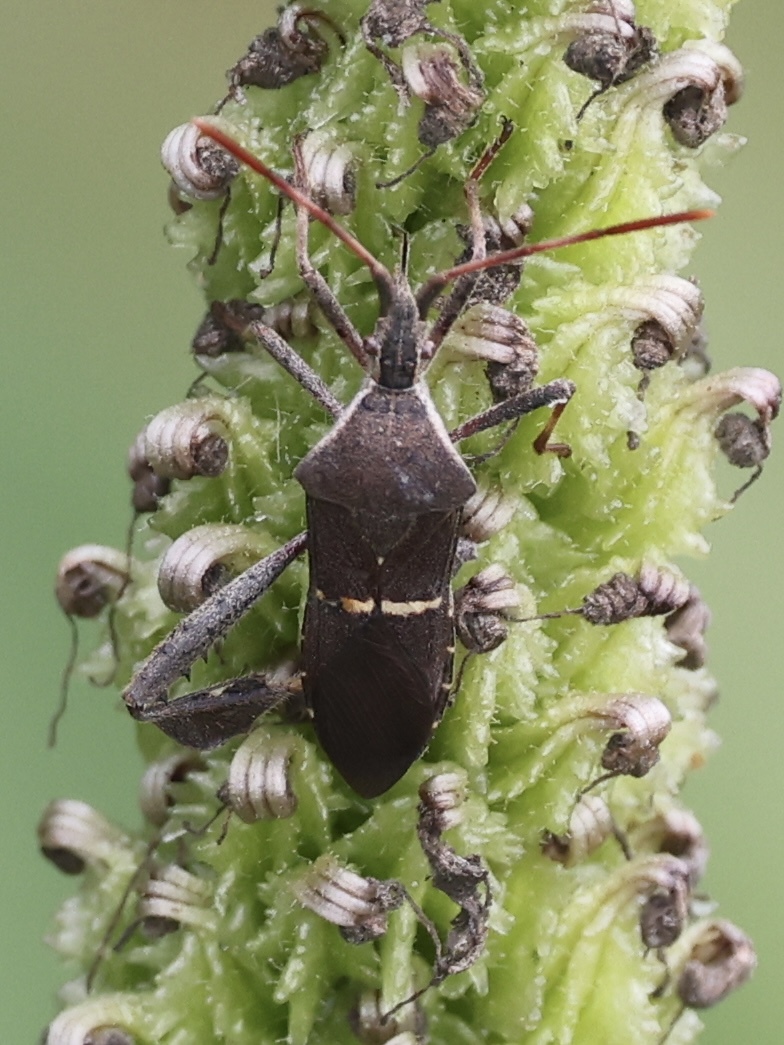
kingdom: Animalia
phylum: Arthropoda
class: Insecta
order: Hemiptera
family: Coreidae
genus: Leptoglossus
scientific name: Leptoglossus phyllopus
